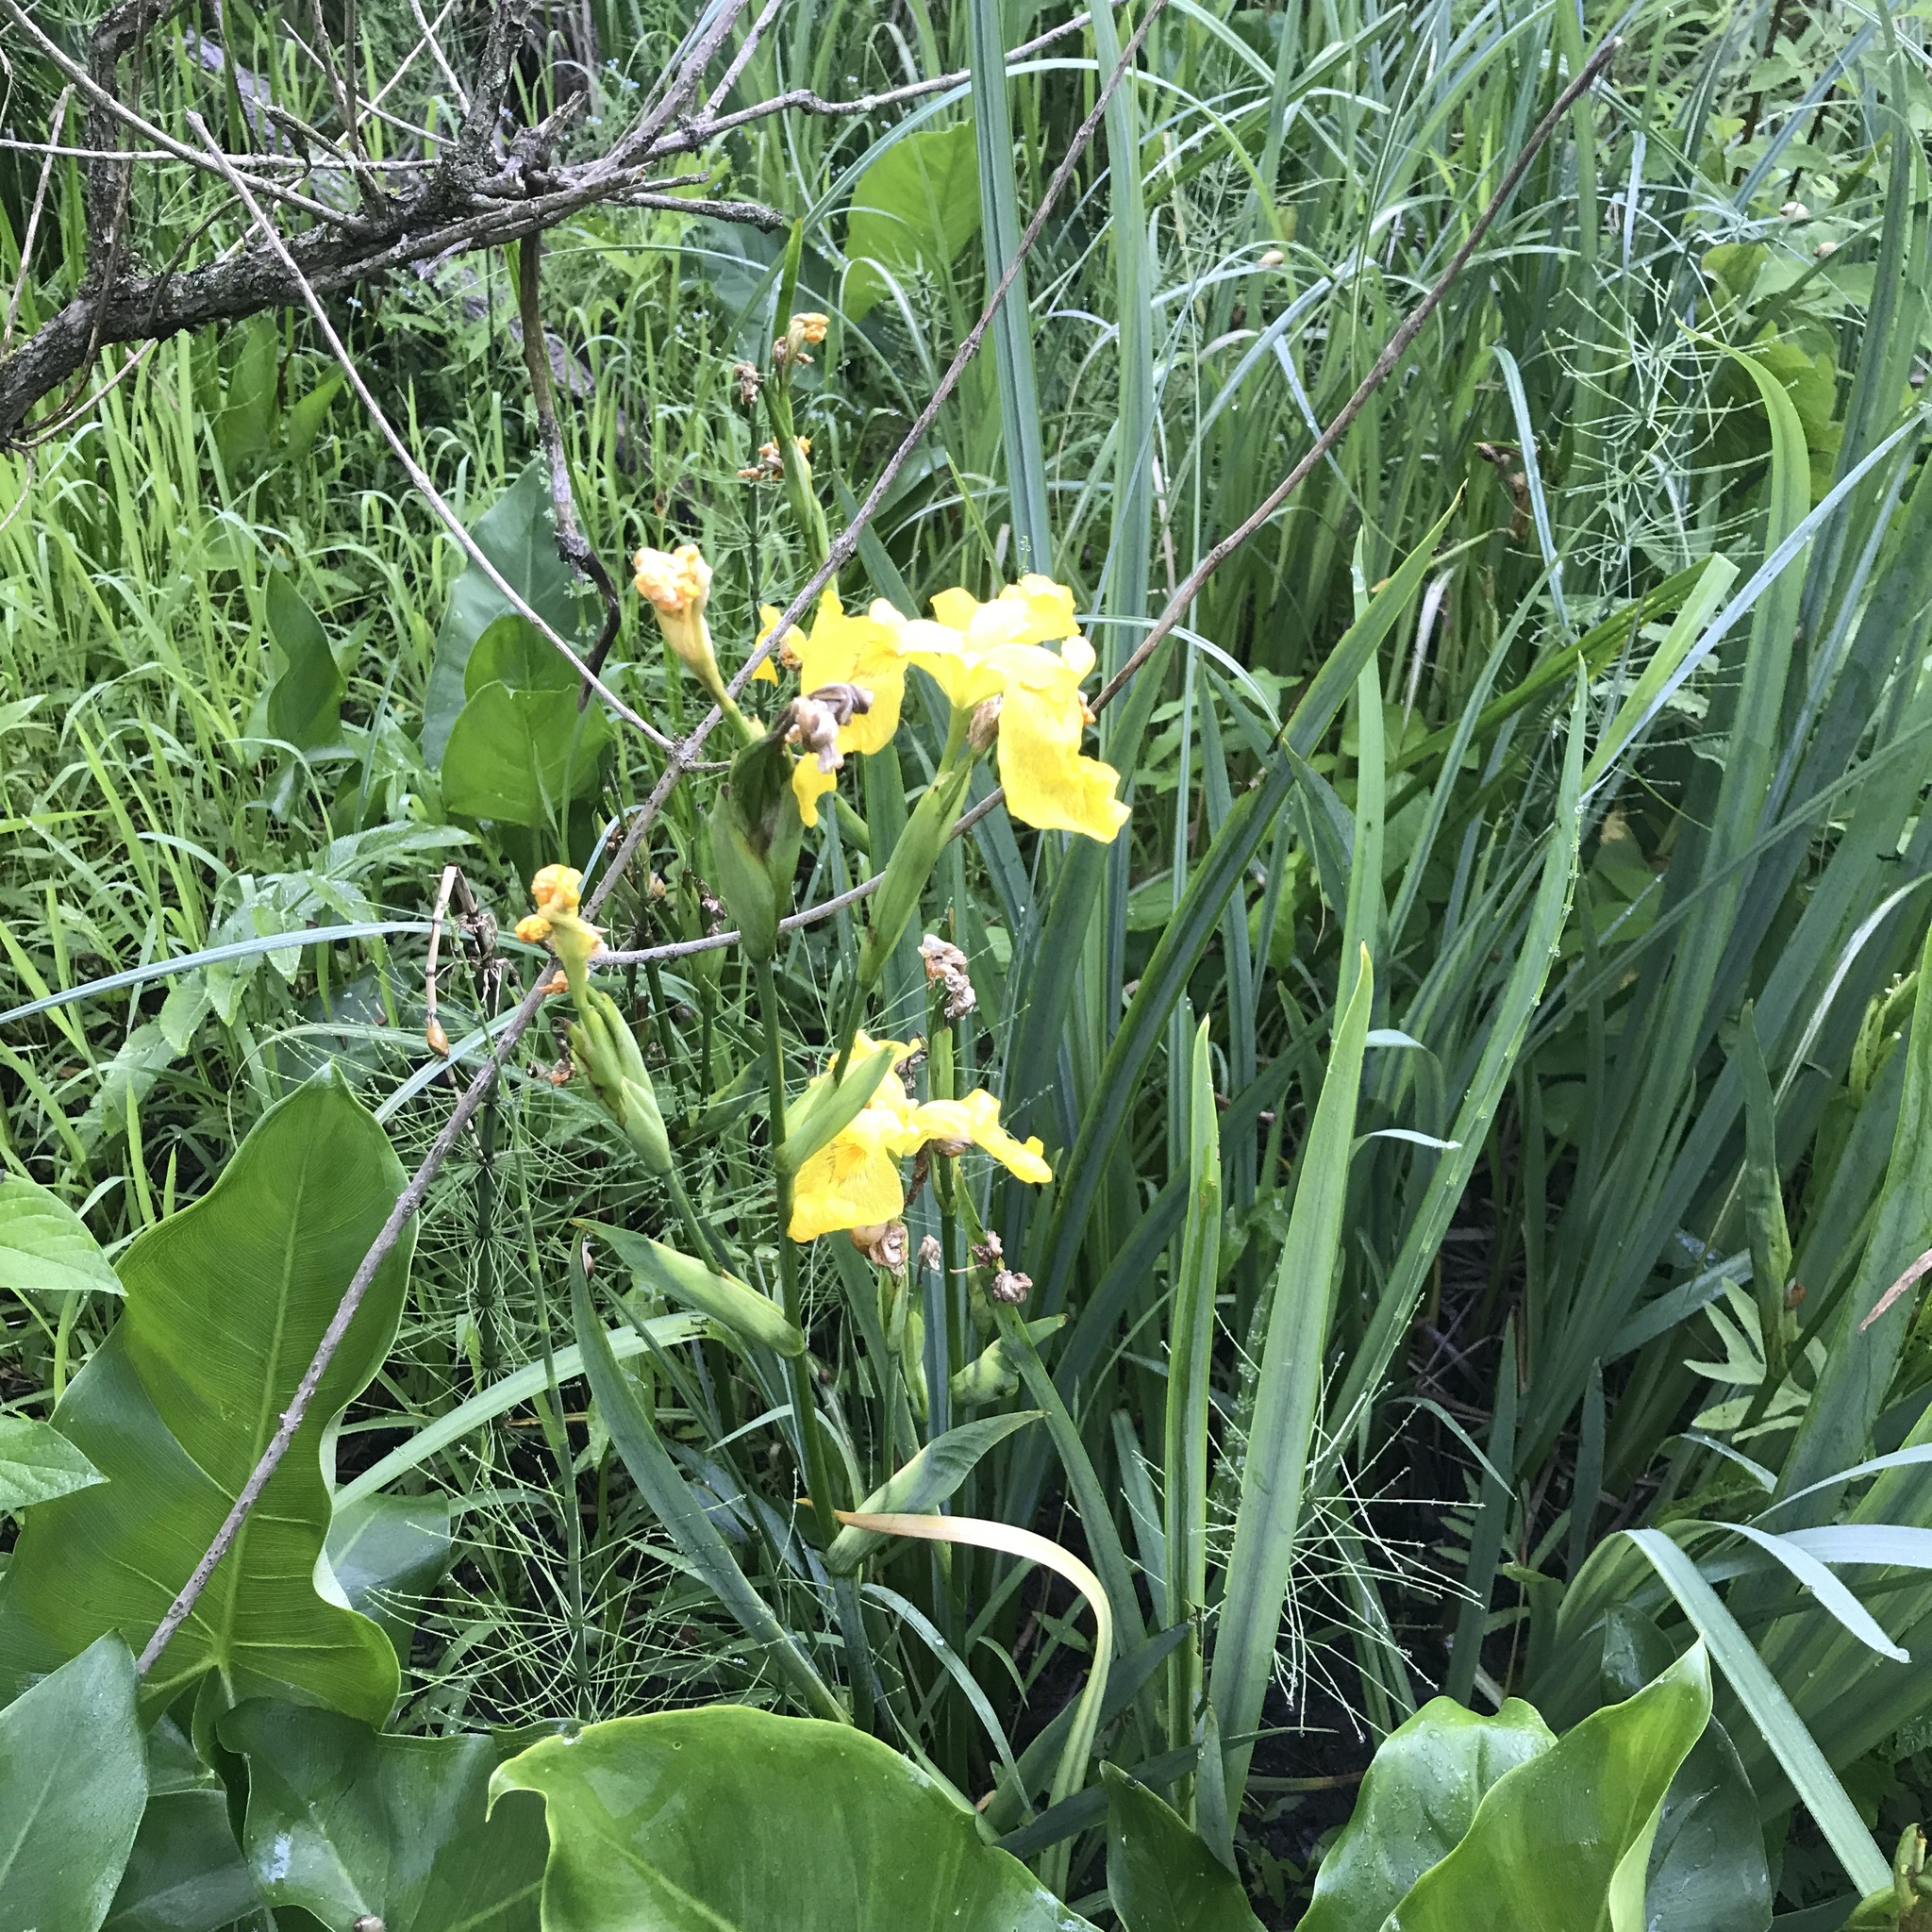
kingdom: Plantae
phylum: Tracheophyta
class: Liliopsida
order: Asparagales
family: Iridaceae
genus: Iris
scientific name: Iris pseudacorus
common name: Yellow flag
